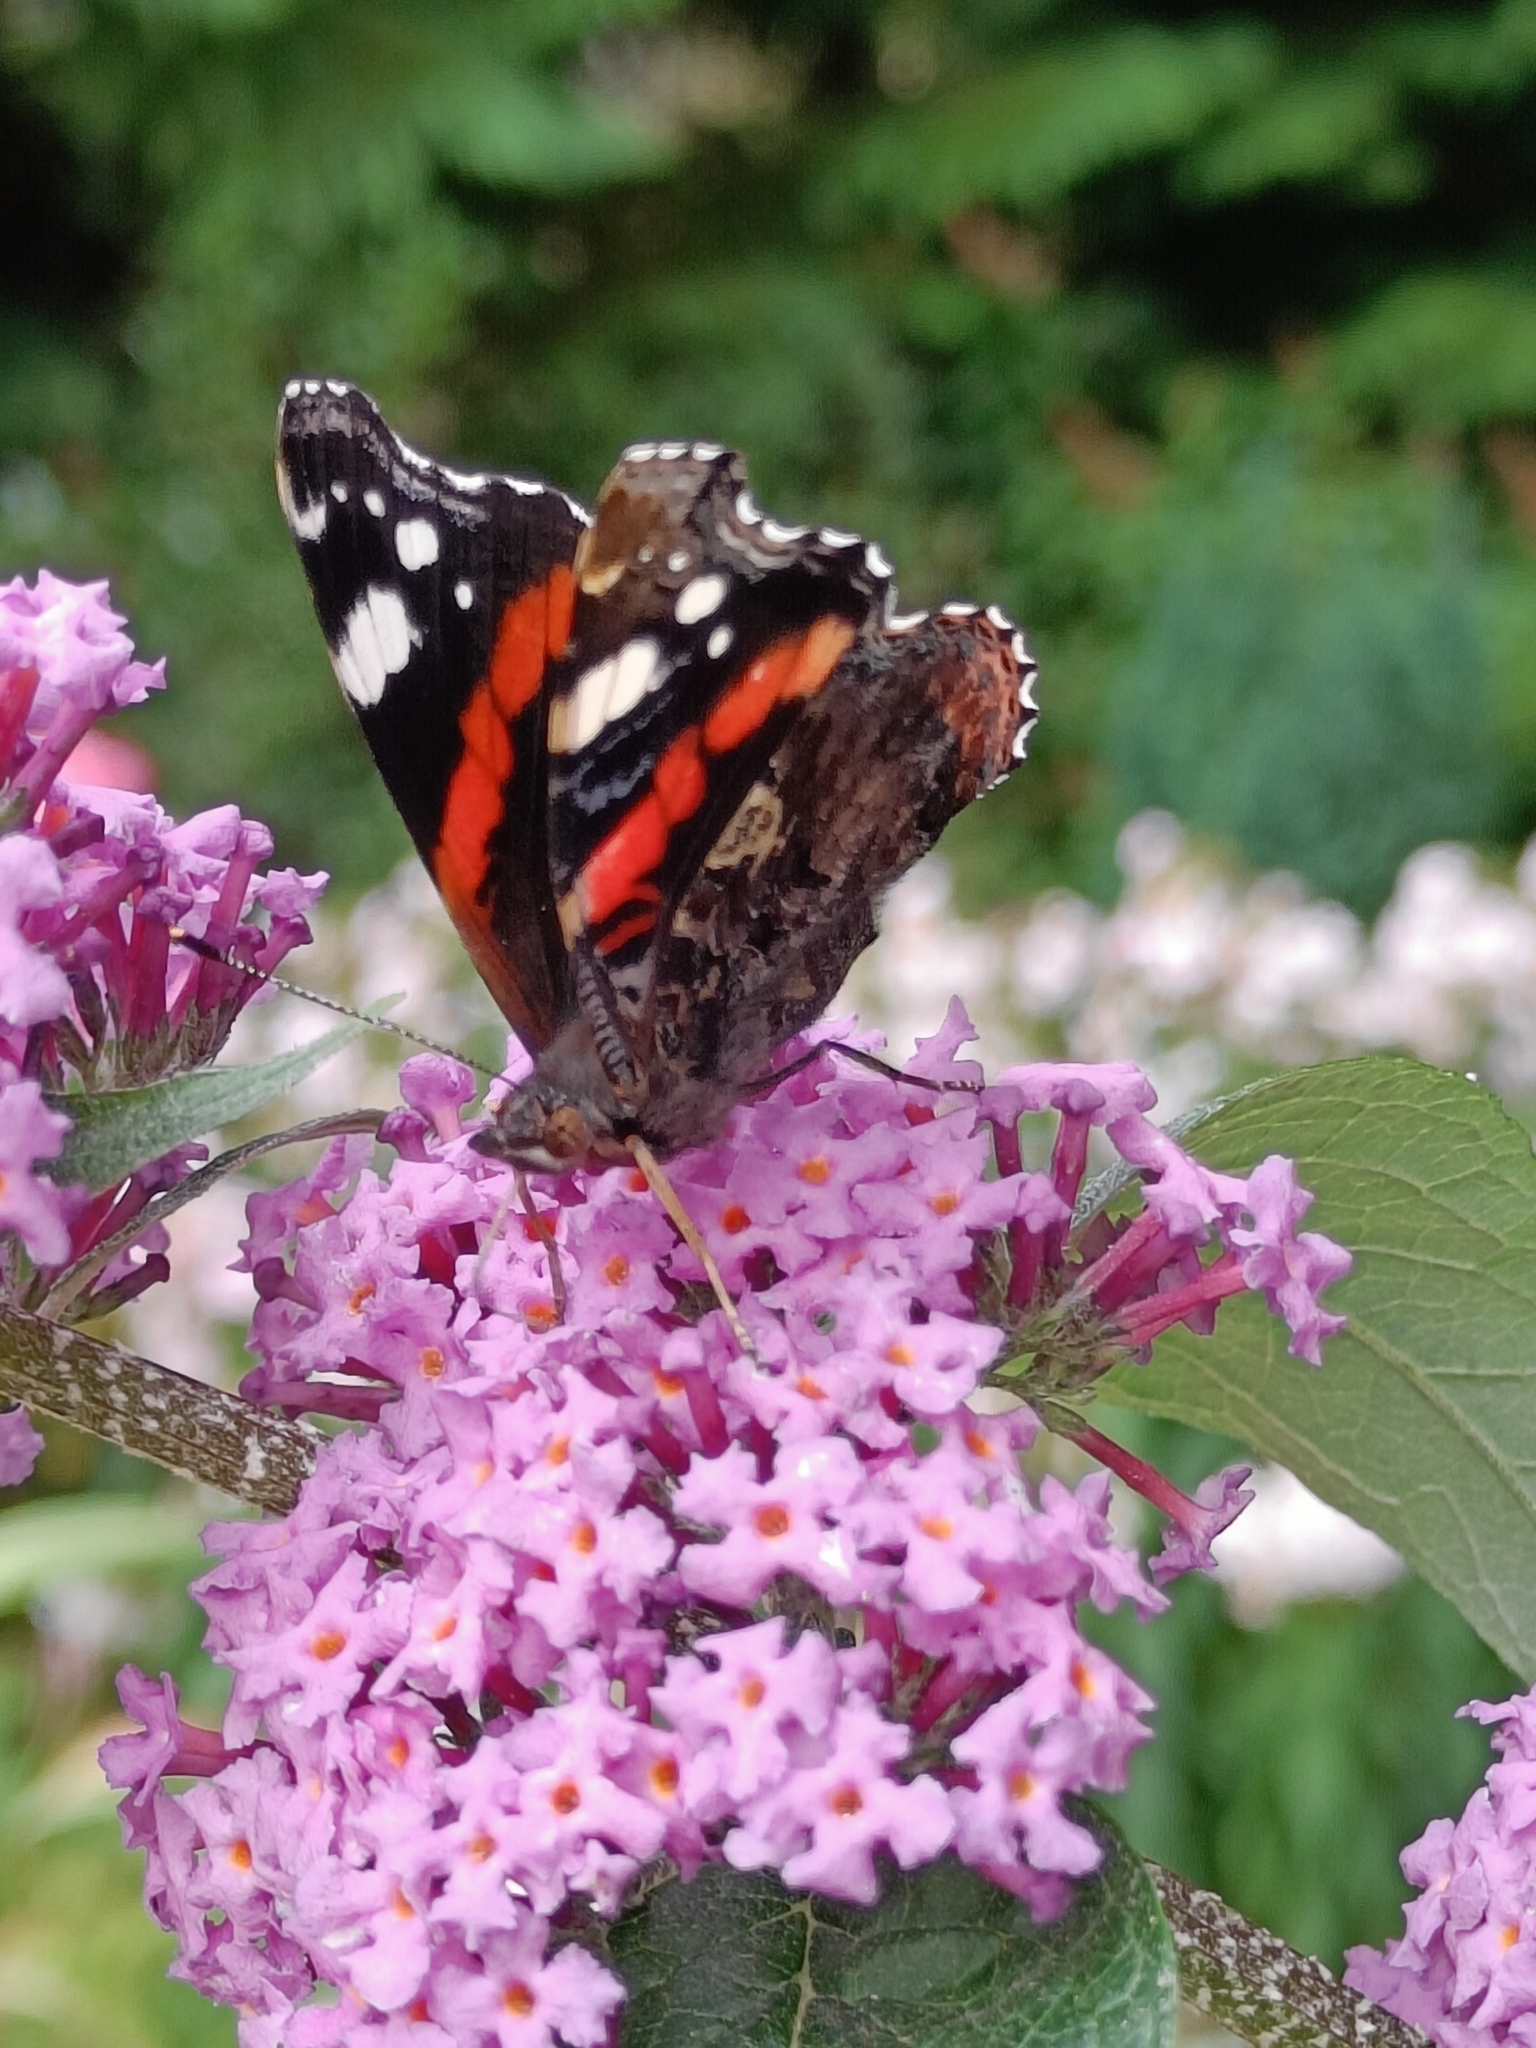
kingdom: Animalia
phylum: Arthropoda
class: Insecta
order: Lepidoptera
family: Nymphalidae
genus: Vanessa
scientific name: Vanessa atalanta
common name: Red admiral
